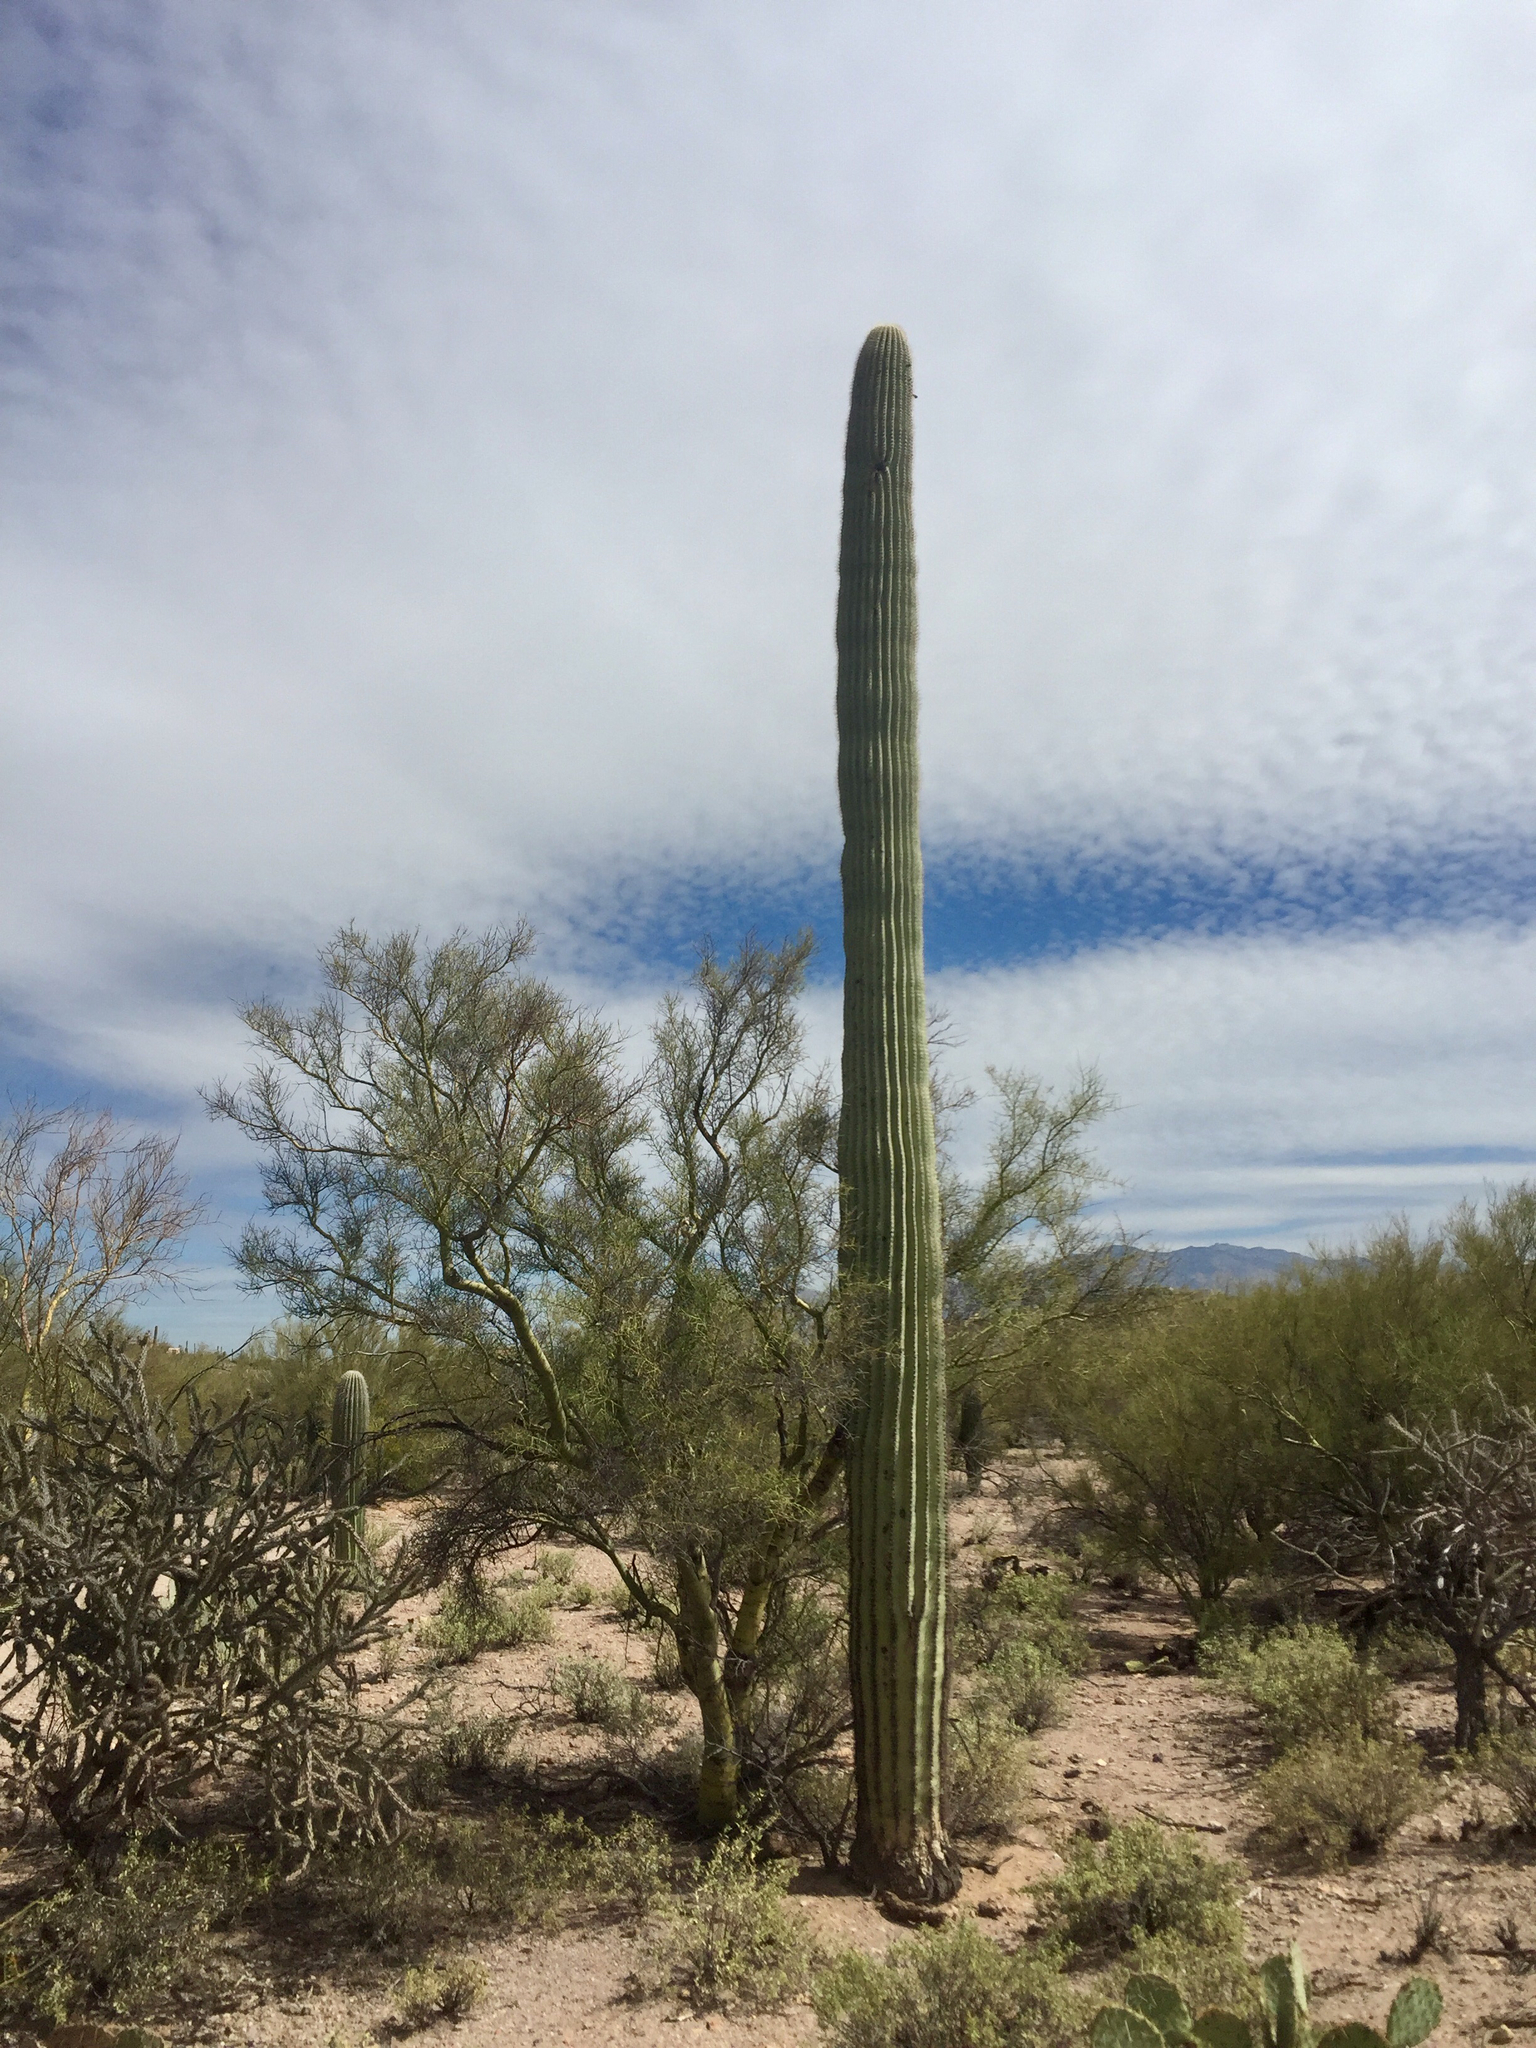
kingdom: Plantae
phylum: Tracheophyta
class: Magnoliopsida
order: Caryophyllales
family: Cactaceae
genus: Carnegiea
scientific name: Carnegiea gigantea
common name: Saguaro
